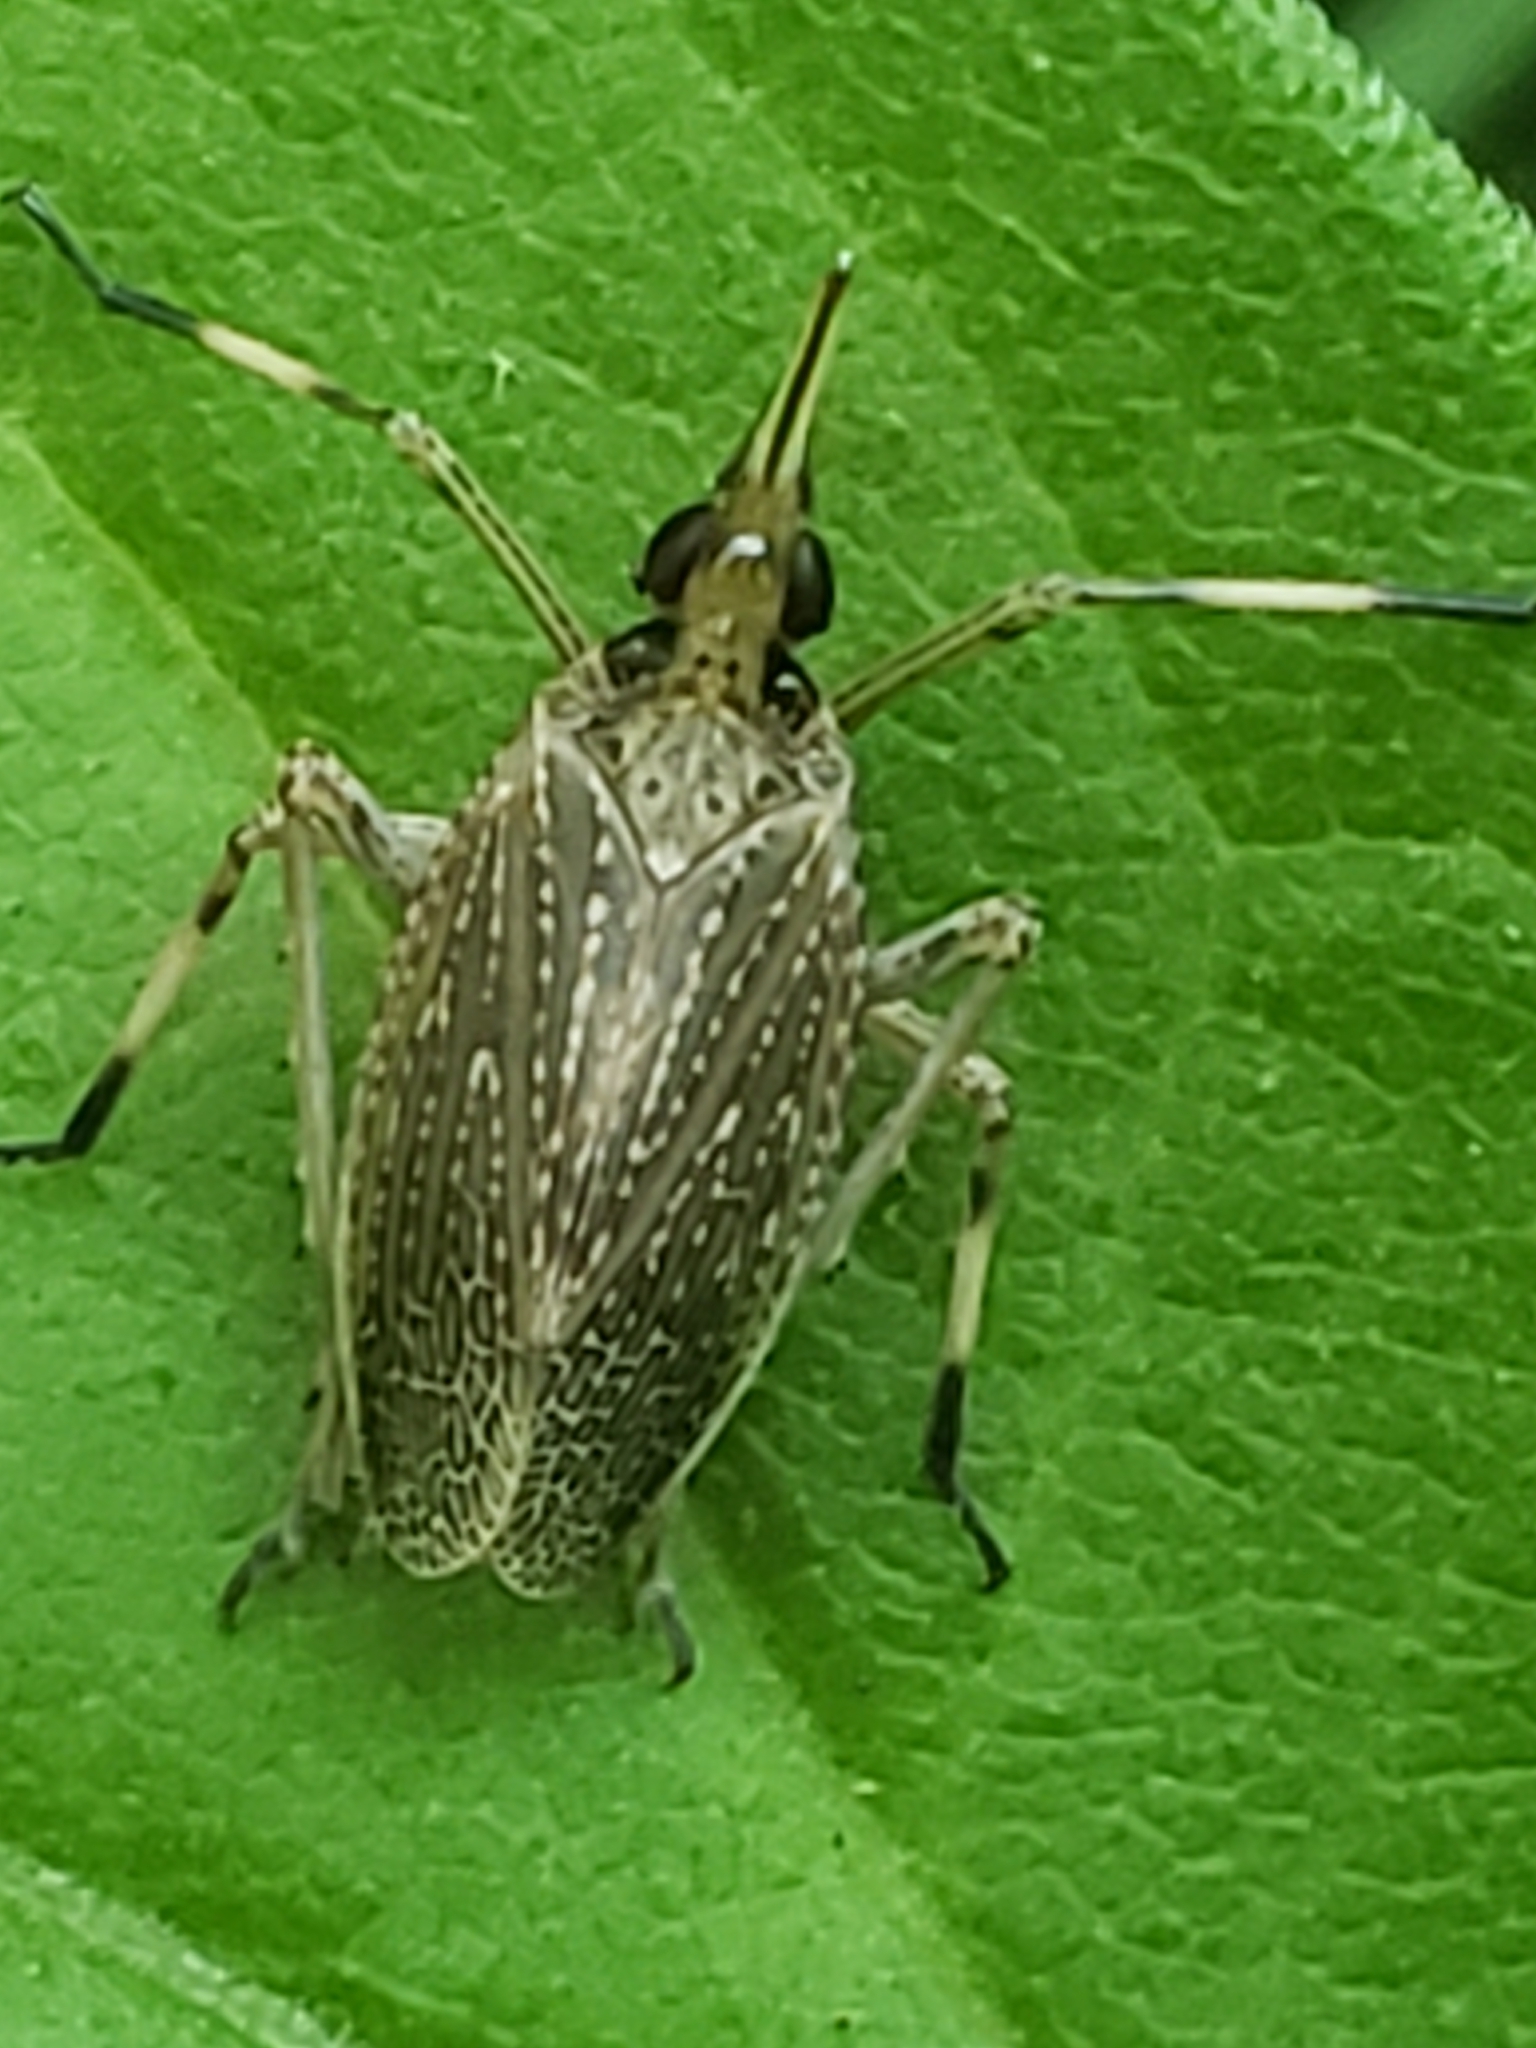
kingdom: Animalia
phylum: Arthropoda
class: Insecta
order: Hemiptera
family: Dictyopharidae
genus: Scolops
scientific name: Scolops sulcipes
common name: Partridge planthopper
